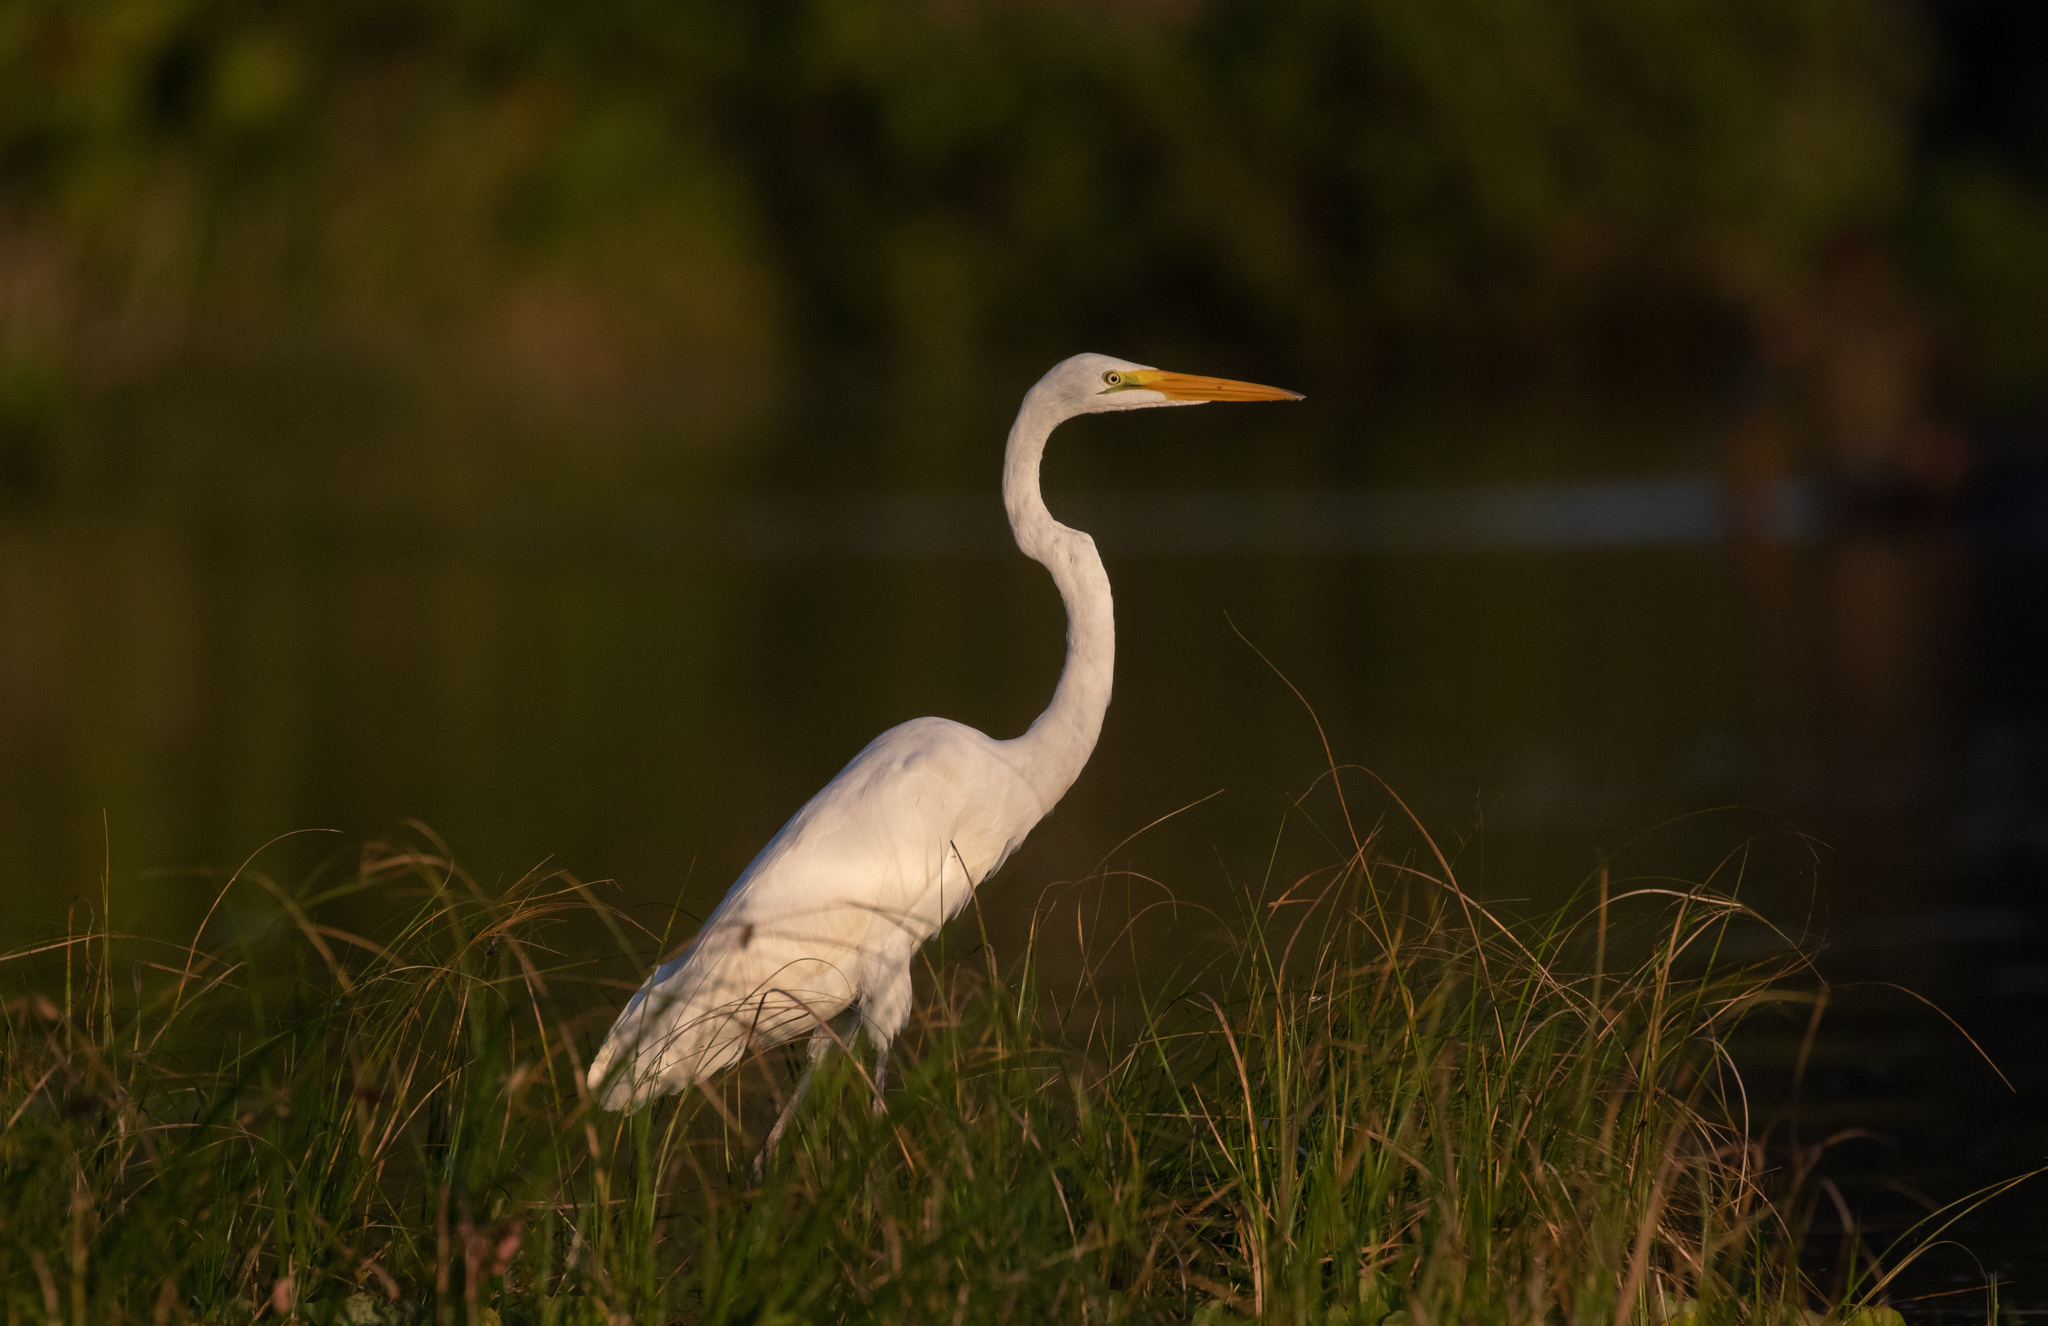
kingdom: Animalia
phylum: Chordata
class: Aves
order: Pelecaniformes
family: Ardeidae
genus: Ardea
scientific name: Ardea alba
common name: Great egret
